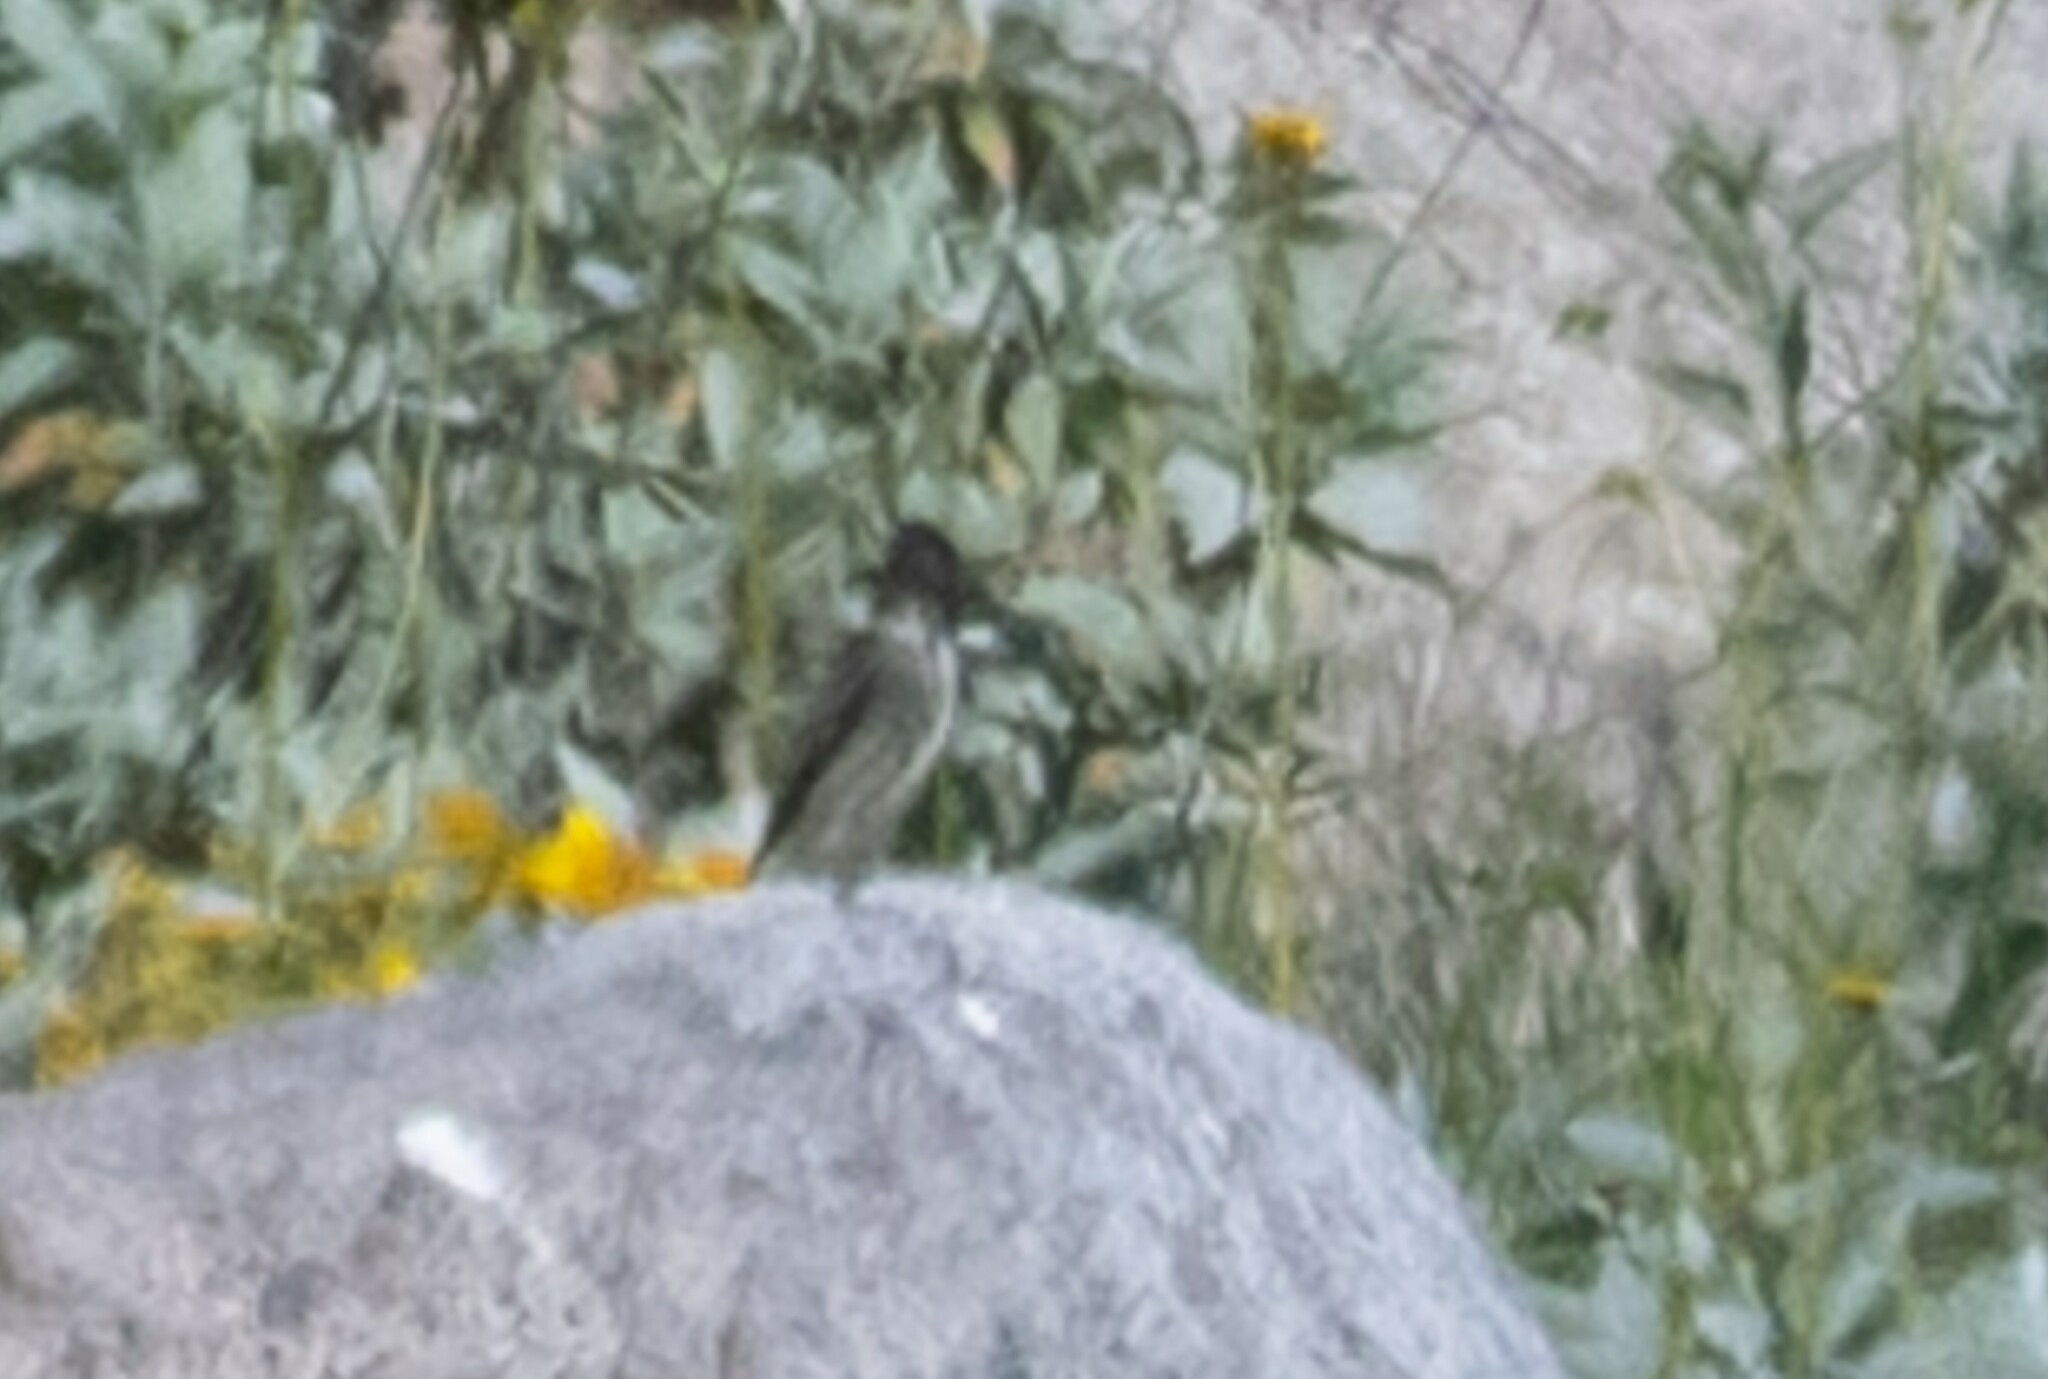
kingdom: Animalia
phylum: Chordata
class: Aves
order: Passeriformes
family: Tyrannidae
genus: Contopus
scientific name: Contopus cooperi
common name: Olive-sided flycatcher
